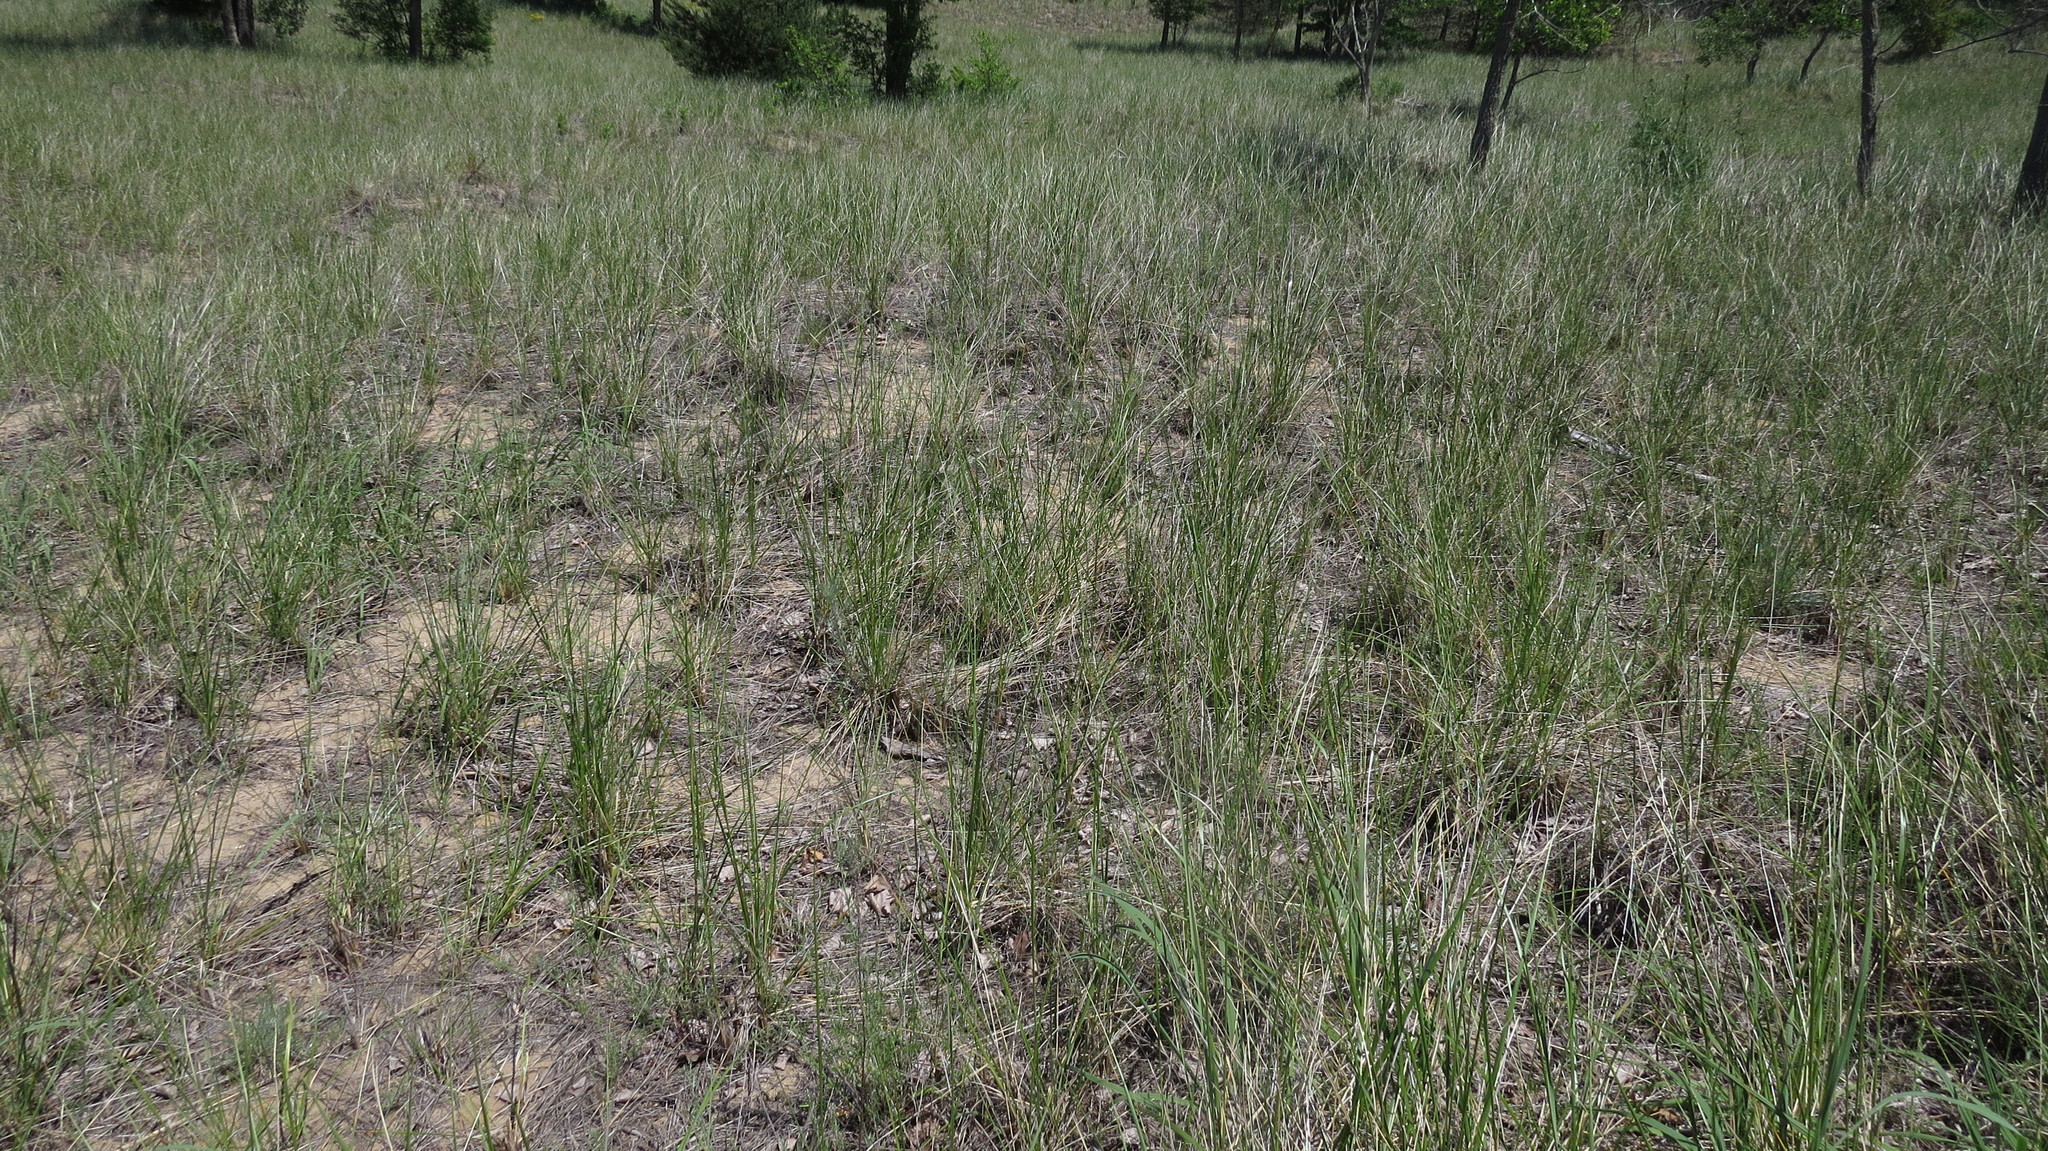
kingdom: Plantae
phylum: Tracheophyta
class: Liliopsida
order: Poales
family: Poaceae
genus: Calamagrostis
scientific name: Calamagrostis breviligulata
